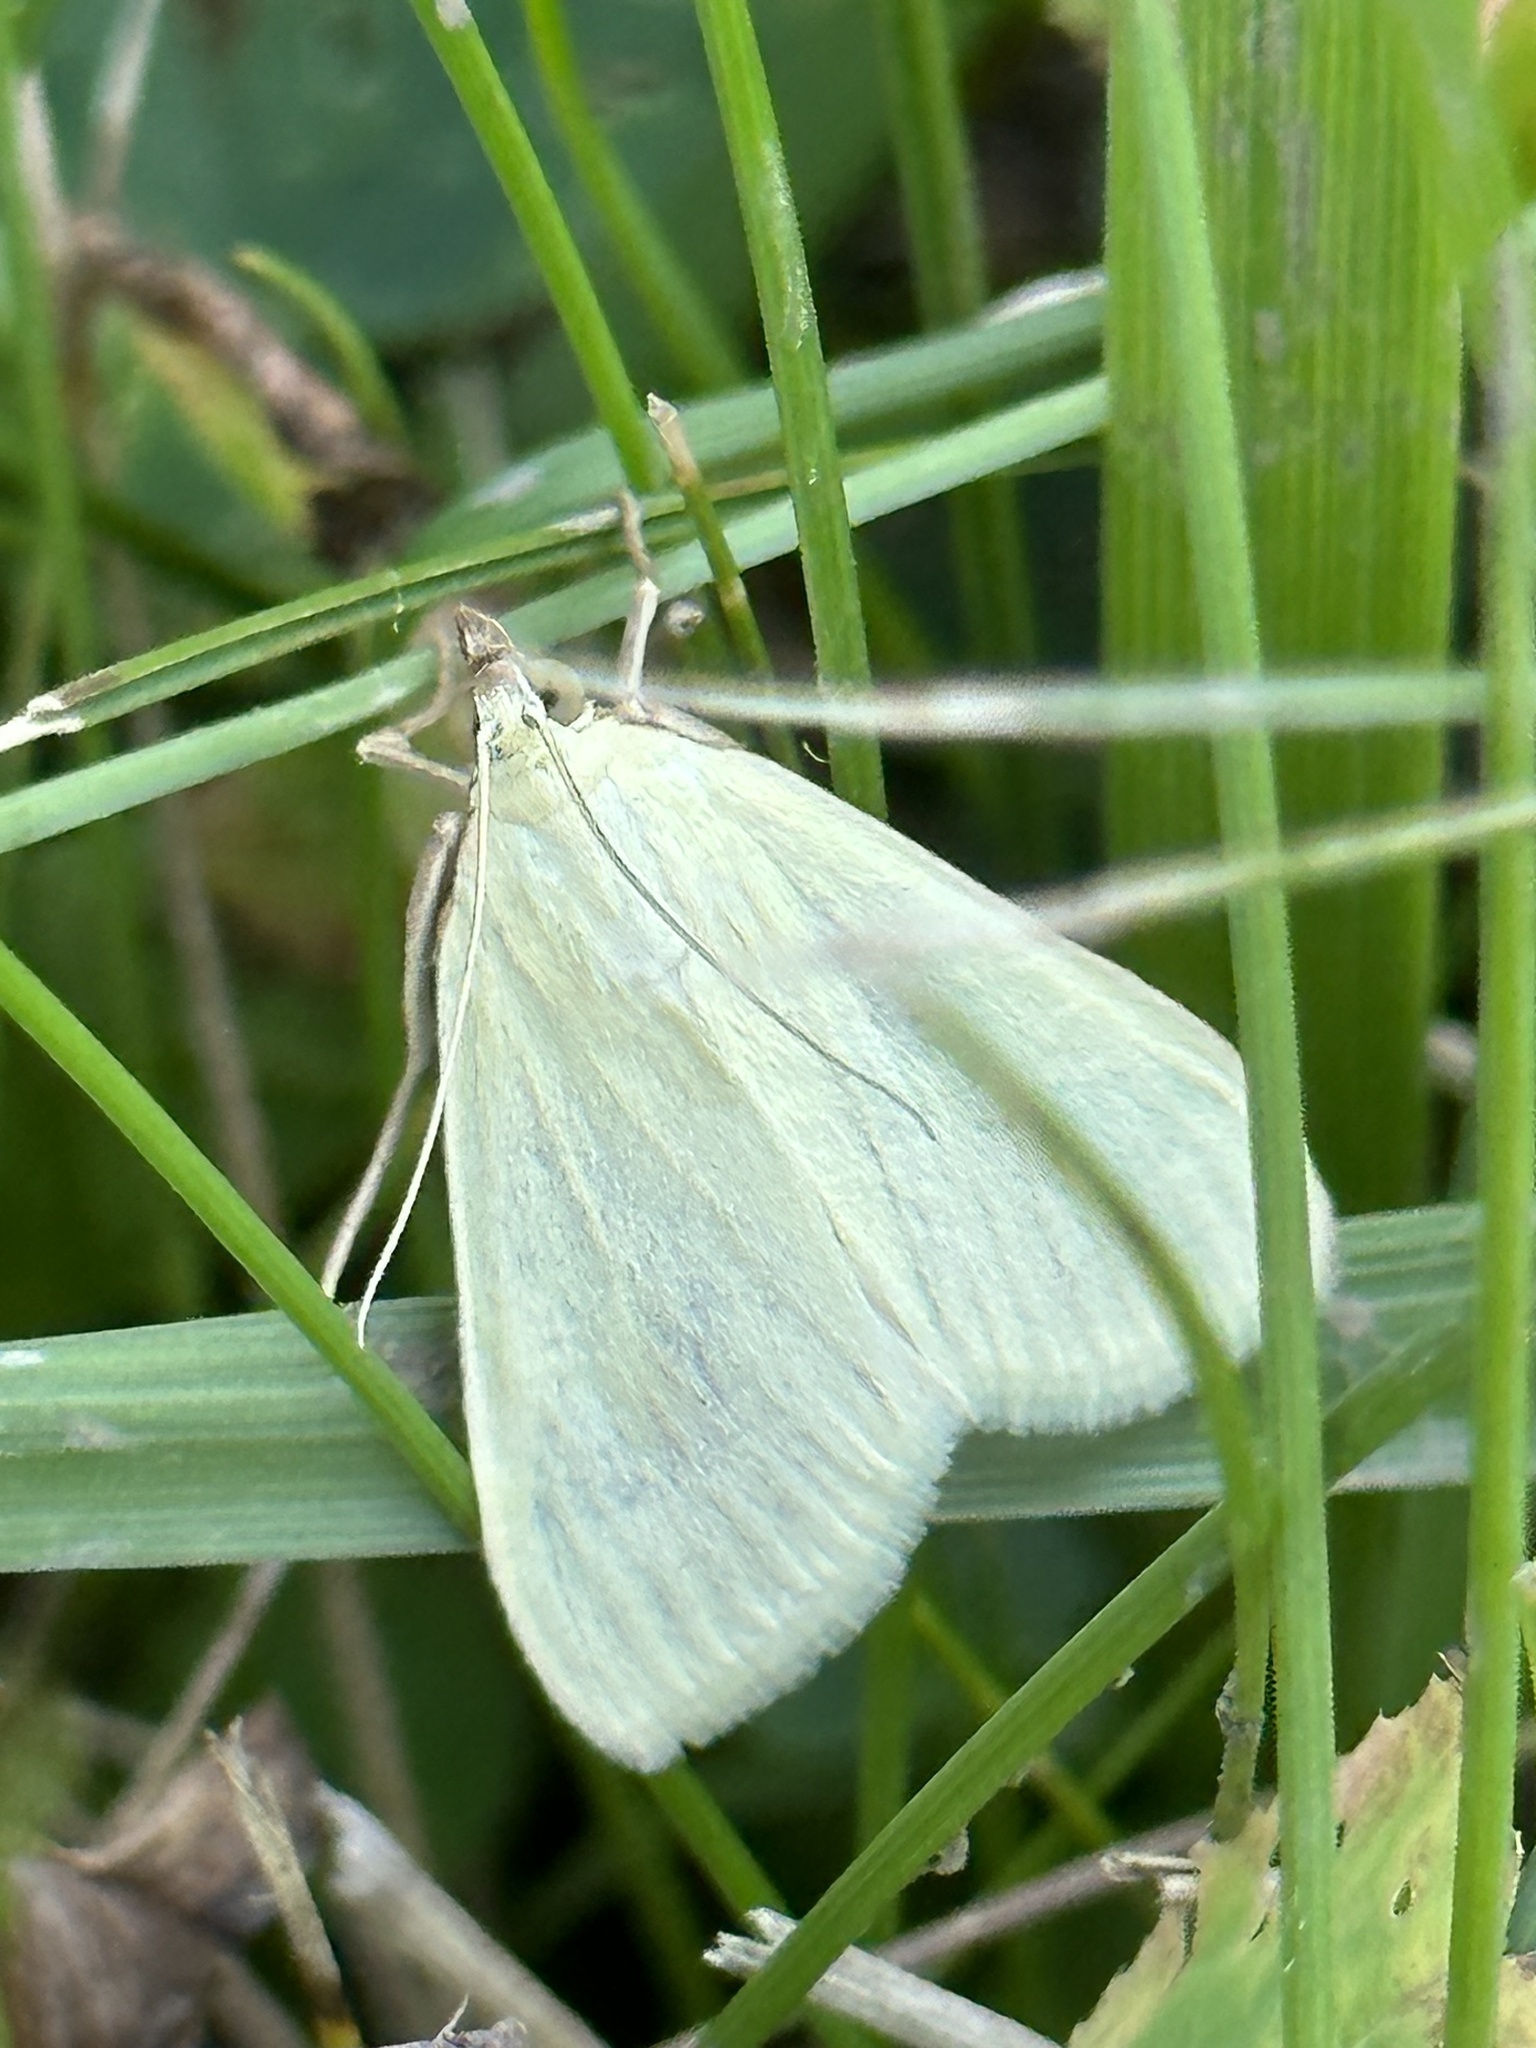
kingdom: Animalia
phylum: Arthropoda
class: Insecta
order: Lepidoptera
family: Crambidae
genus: Sitochroa
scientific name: Sitochroa palealis
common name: Greenish-yellow sitochroa moth
